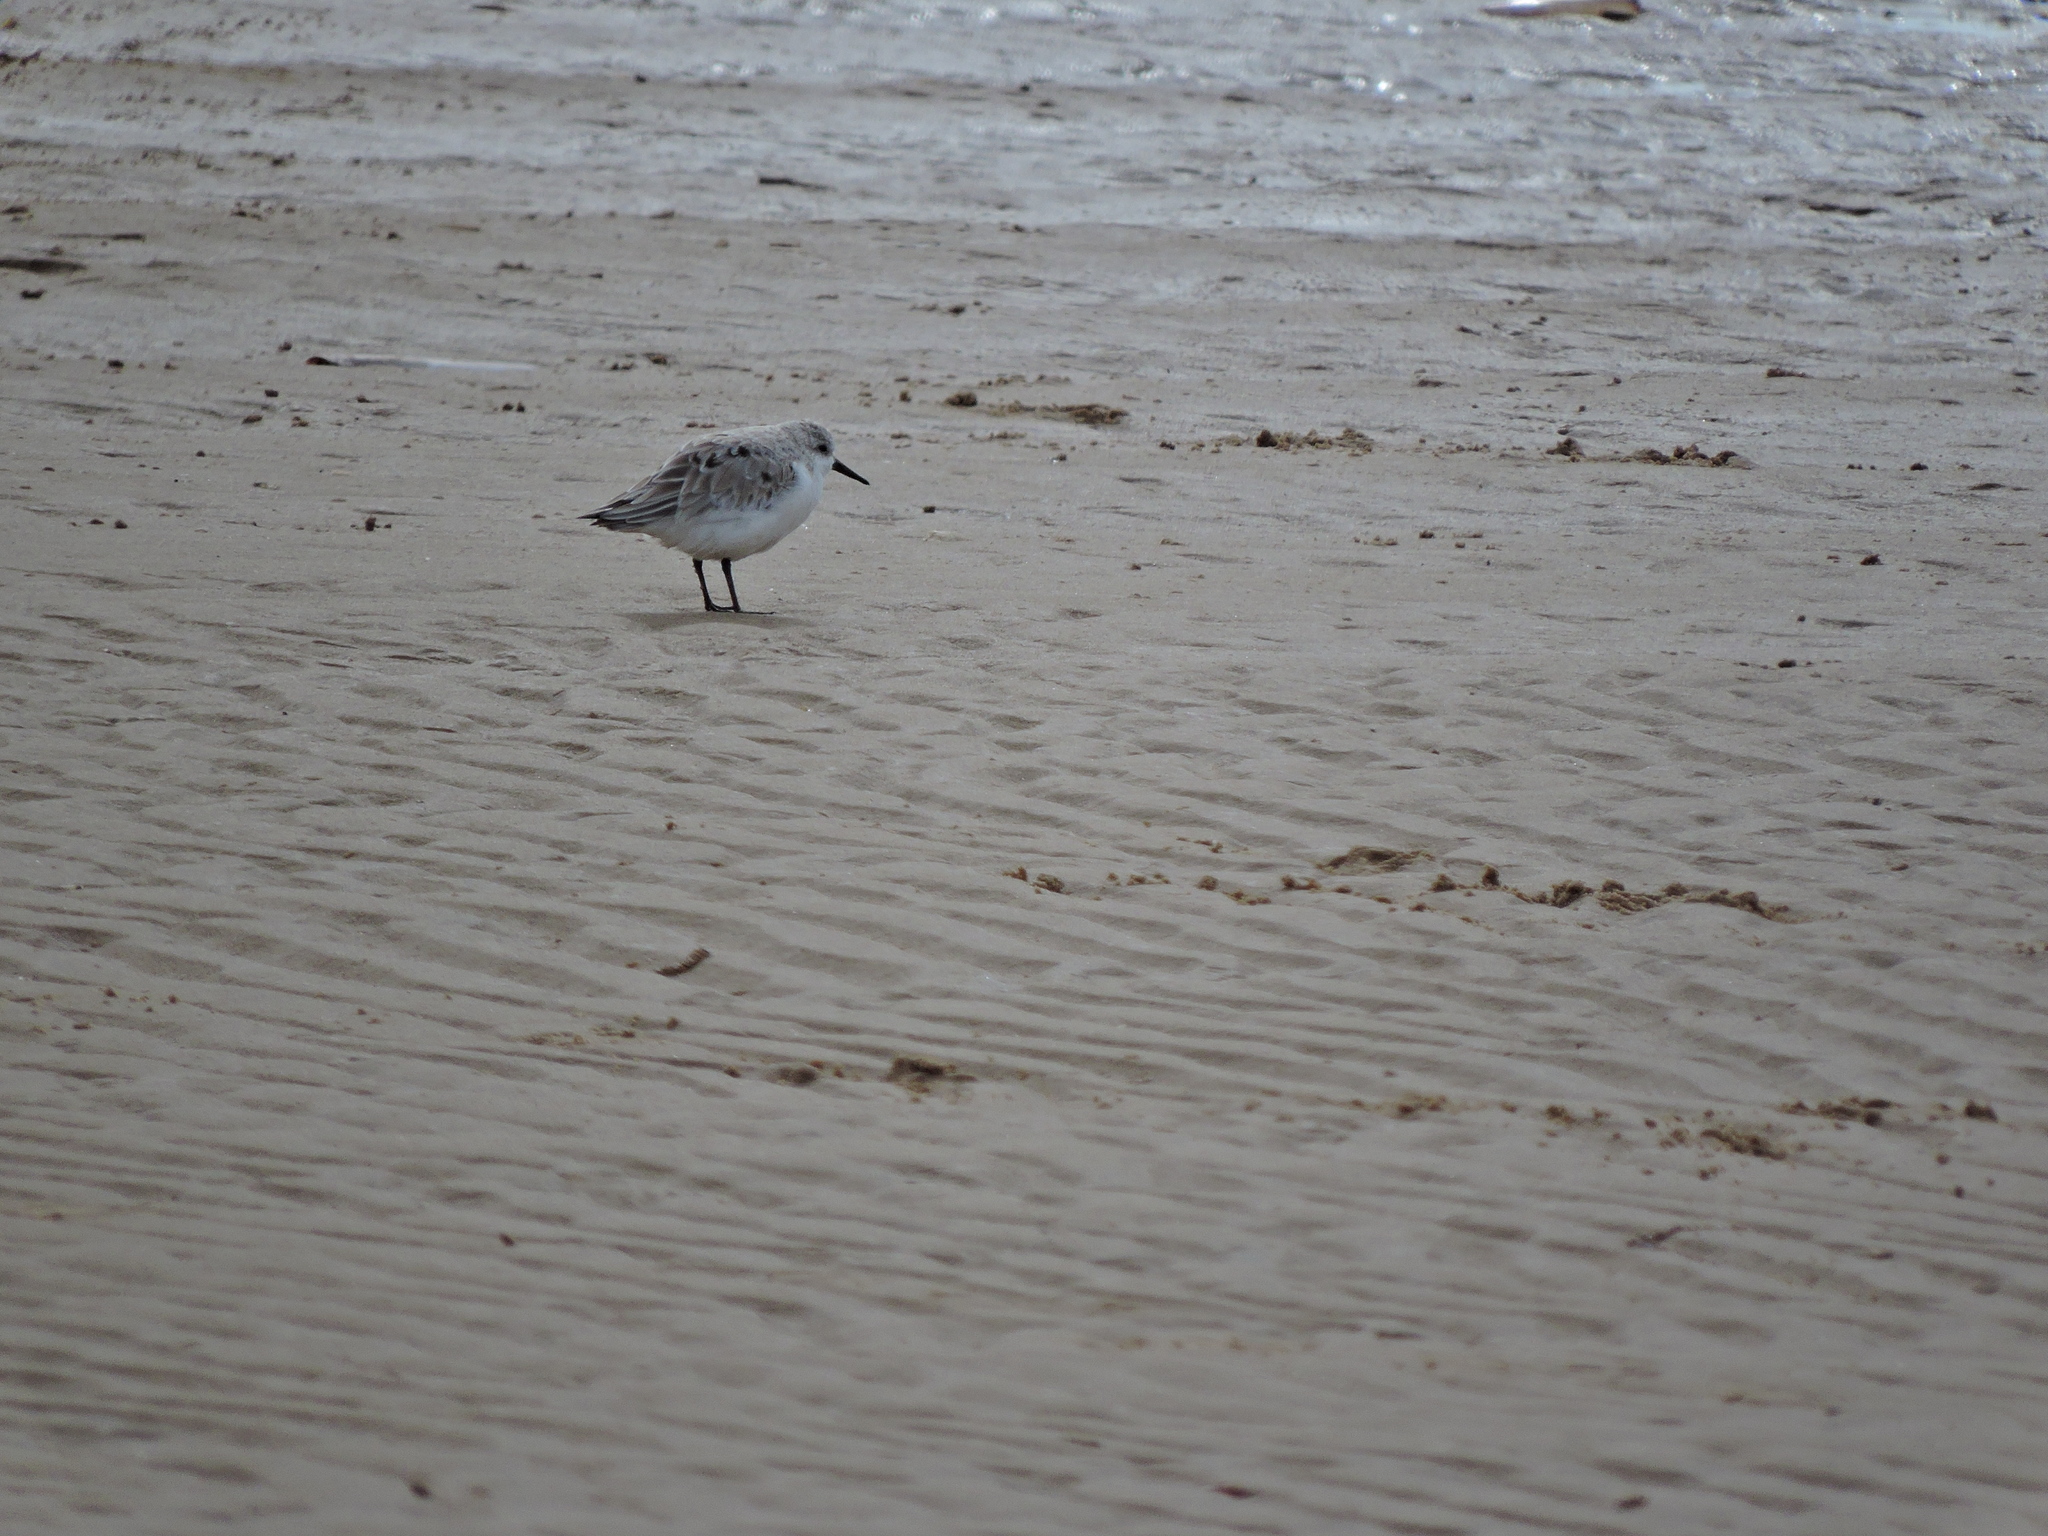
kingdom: Animalia
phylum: Chordata
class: Aves
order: Charadriiformes
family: Scolopacidae
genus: Calidris
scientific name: Calidris alba
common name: Sanderling
